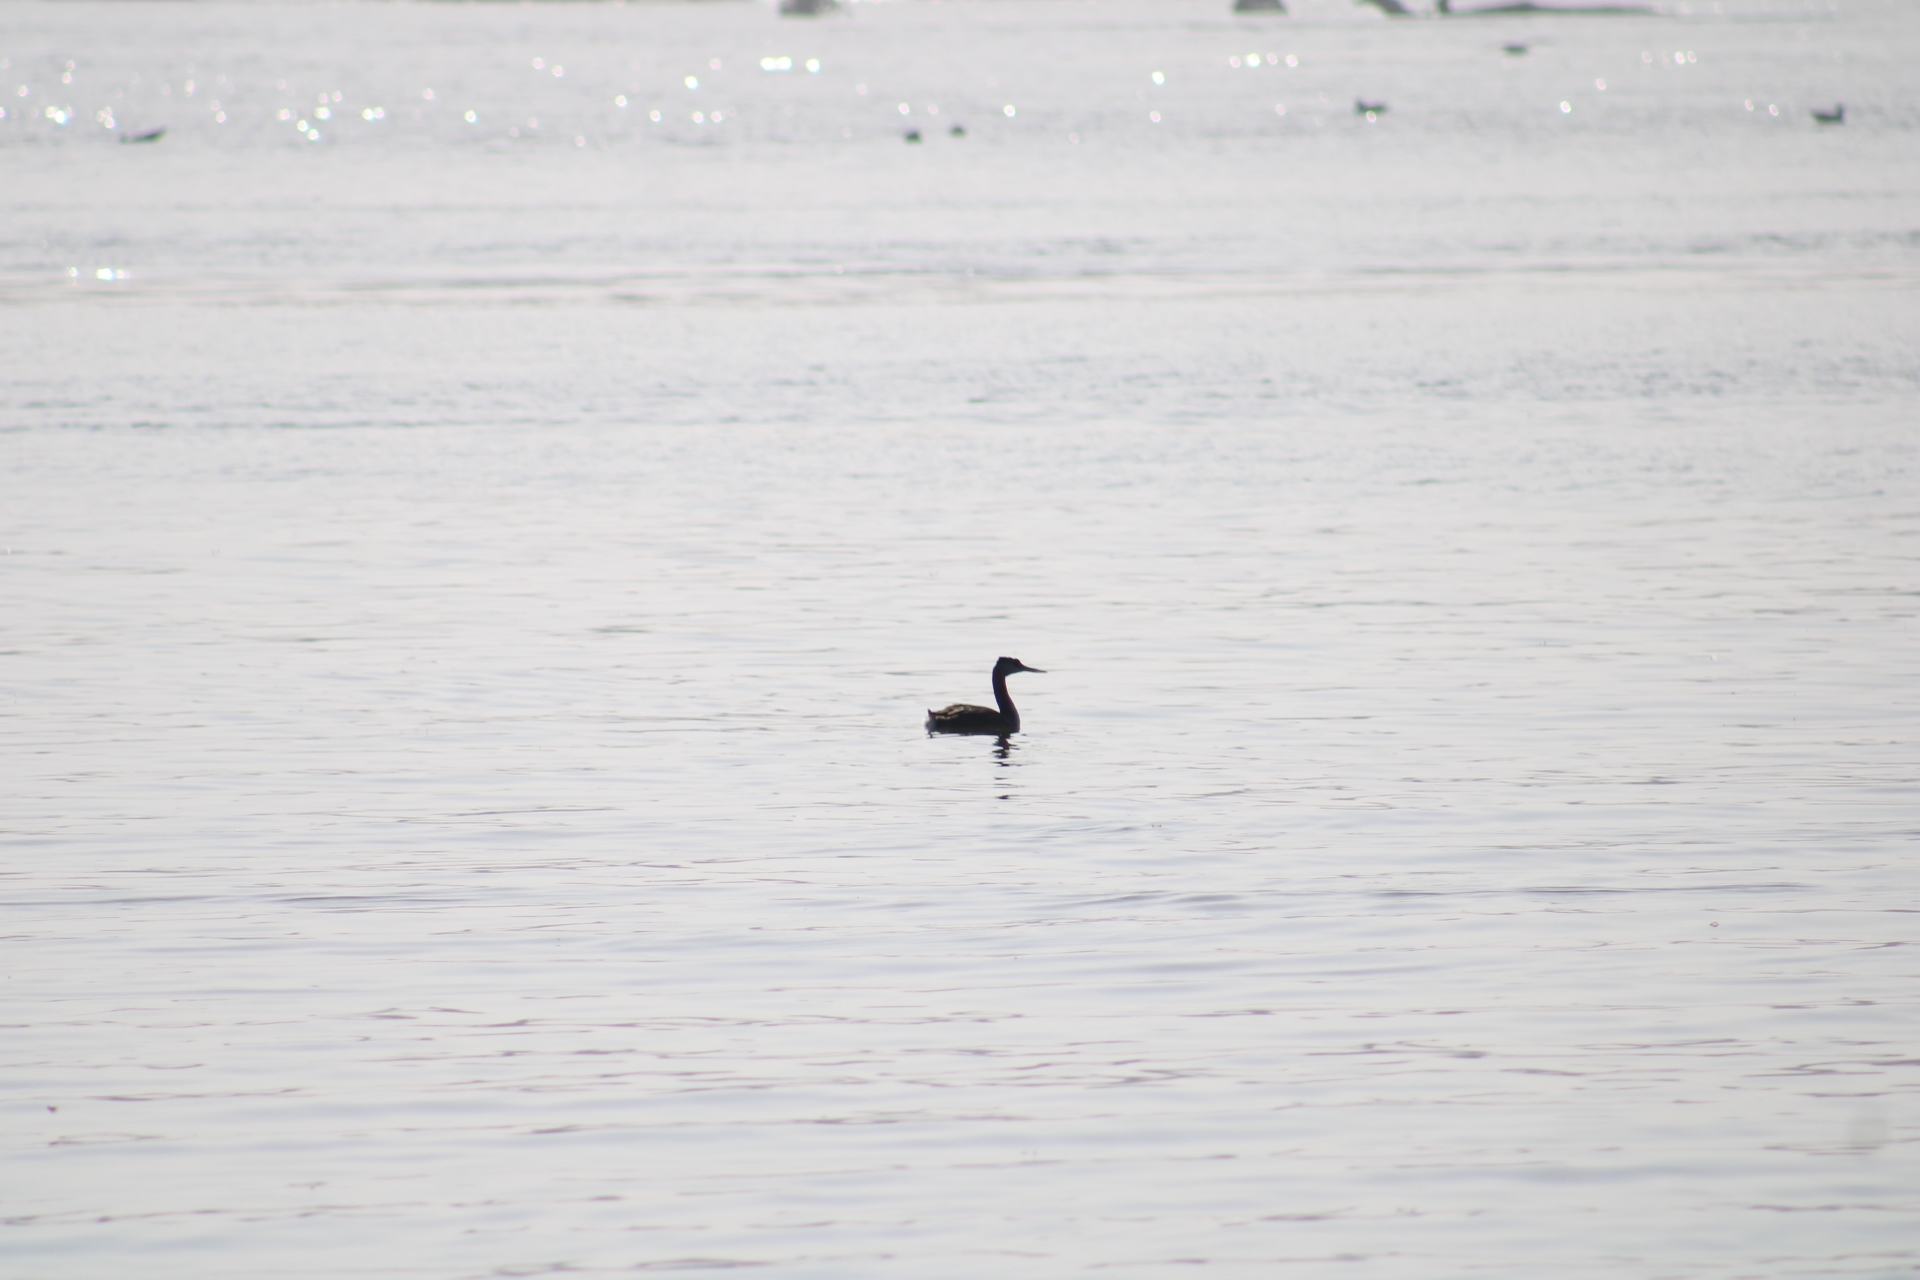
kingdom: Animalia
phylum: Chordata
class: Aves
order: Podicipediformes
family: Podicipedidae
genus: Podiceps
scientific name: Podiceps major
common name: Great grebe
